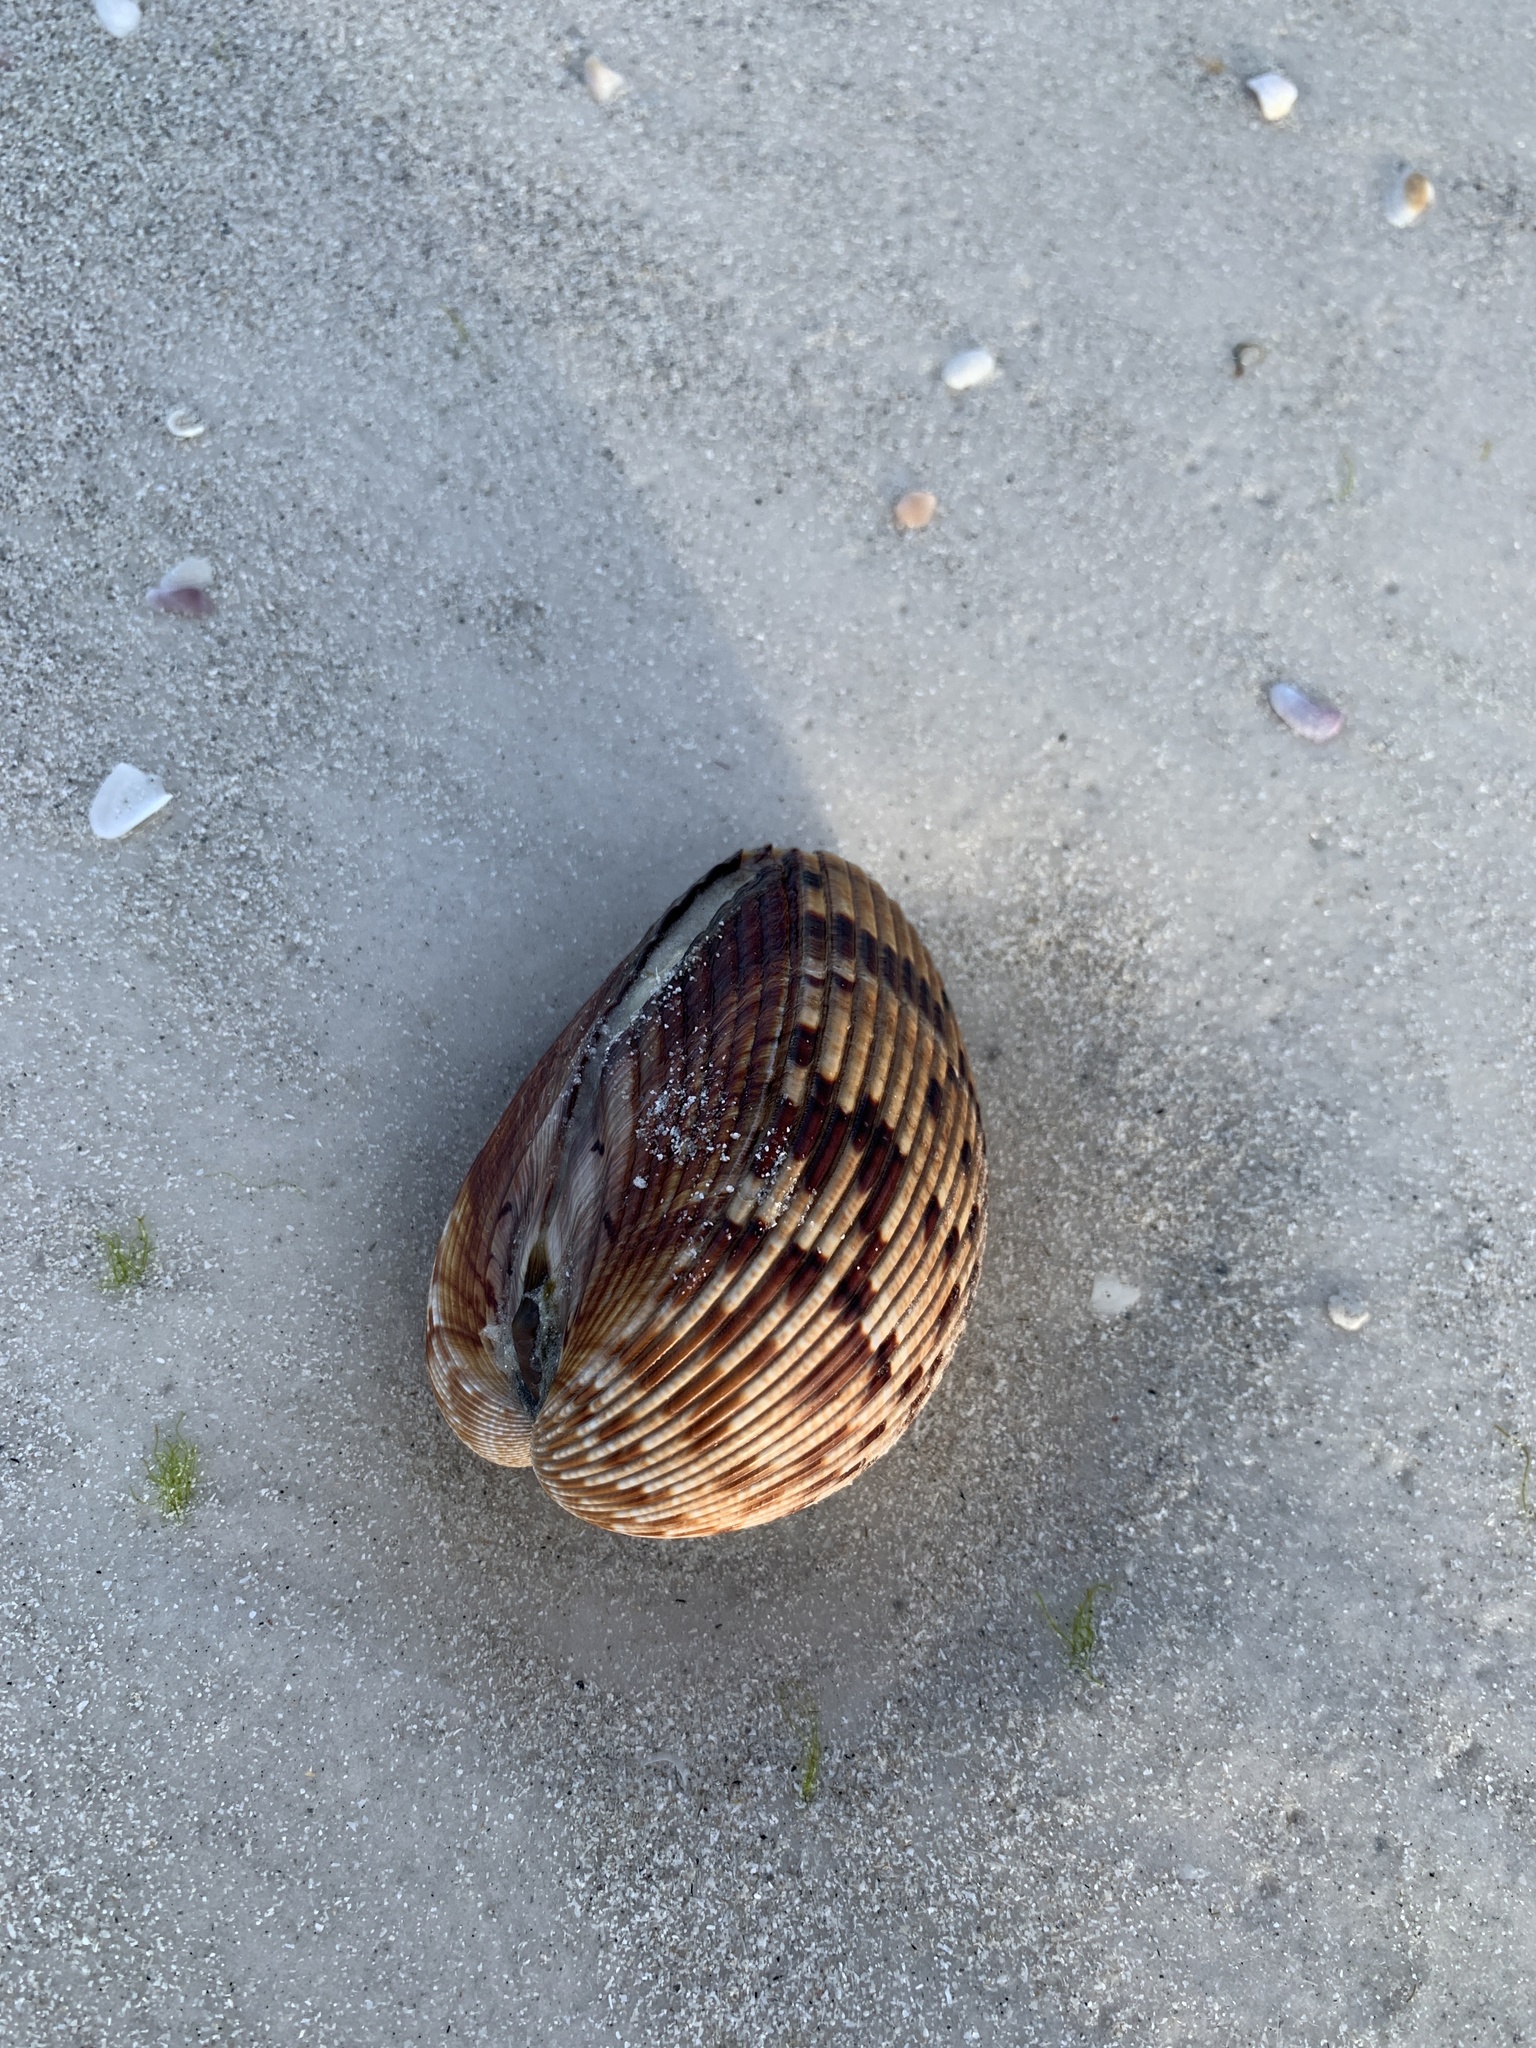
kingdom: Animalia
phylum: Mollusca
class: Bivalvia
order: Cardiida
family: Cardiidae
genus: Dinocardium
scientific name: Dinocardium robustum
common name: Atlantic giant cockle
